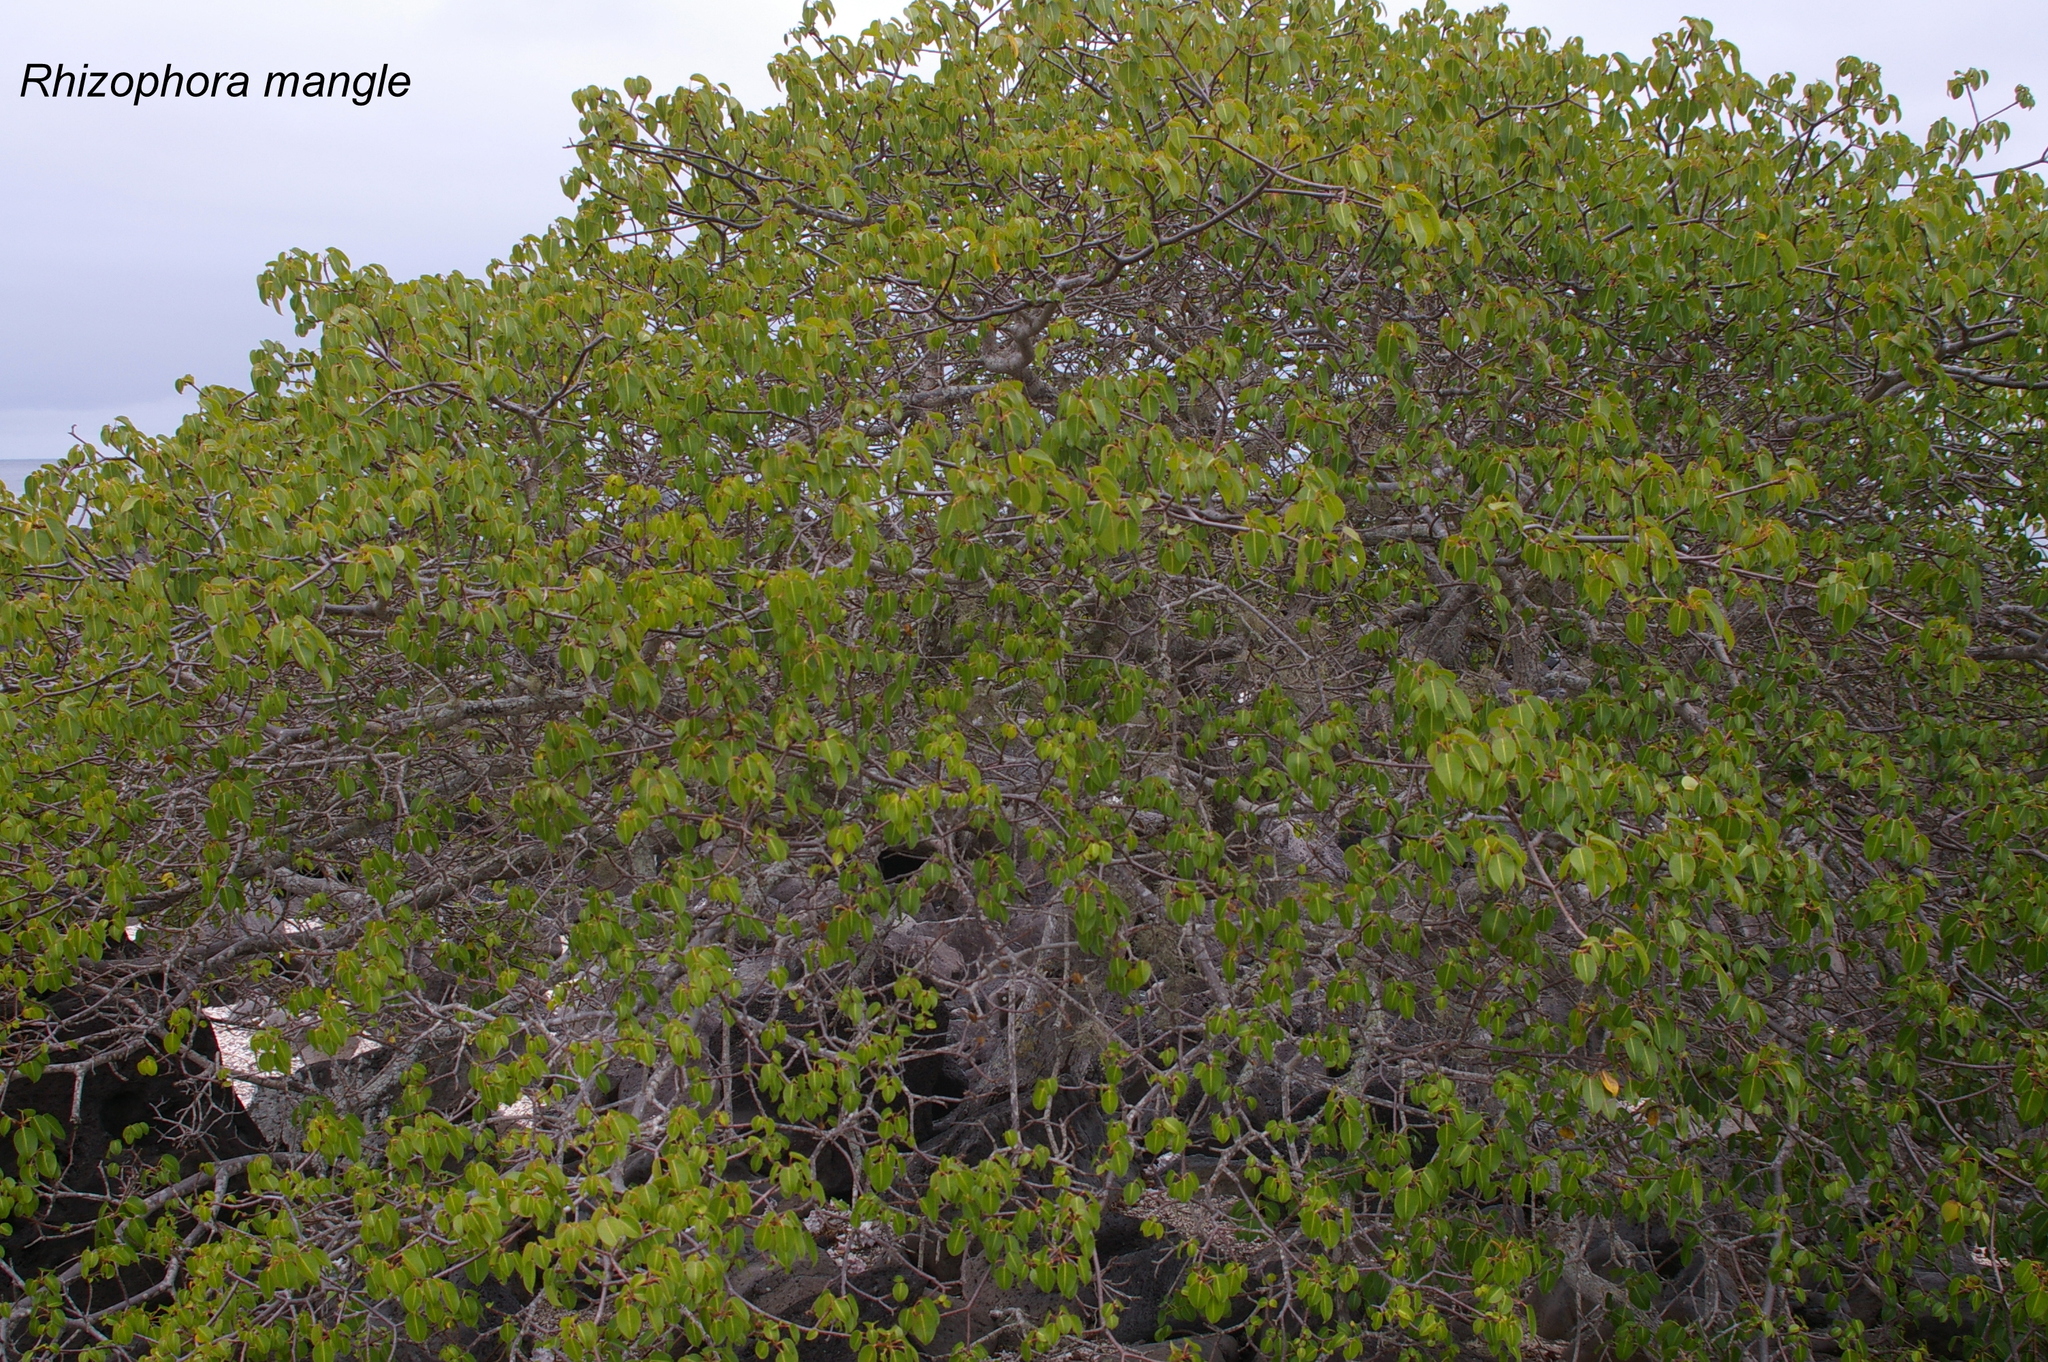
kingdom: Plantae
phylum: Tracheophyta
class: Magnoliopsida
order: Malpighiales
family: Euphorbiaceae
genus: Hippomane
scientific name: Hippomane mancinella
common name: Manchineel
